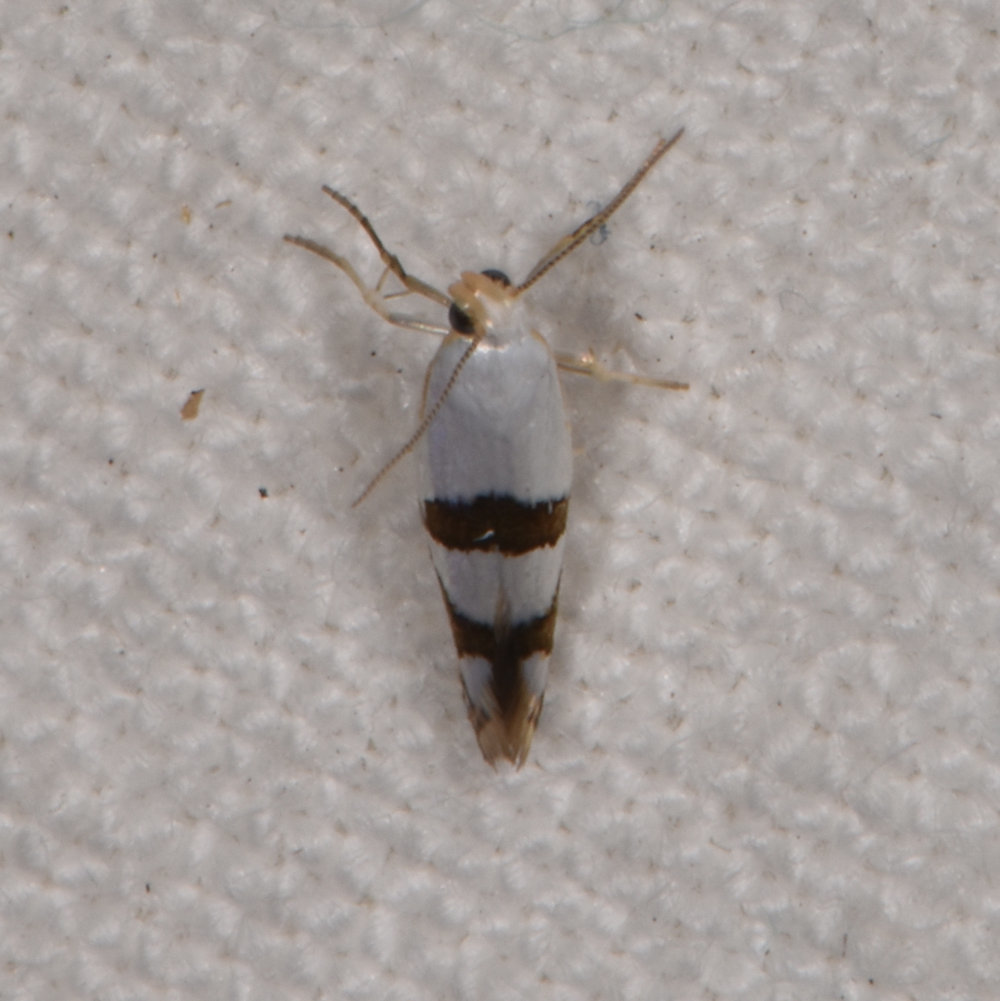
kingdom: Animalia
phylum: Arthropoda
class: Insecta
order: Lepidoptera
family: Argyresthiidae
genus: Argyresthia
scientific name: Argyresthia oreasella
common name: Cherry shoot borer moth
